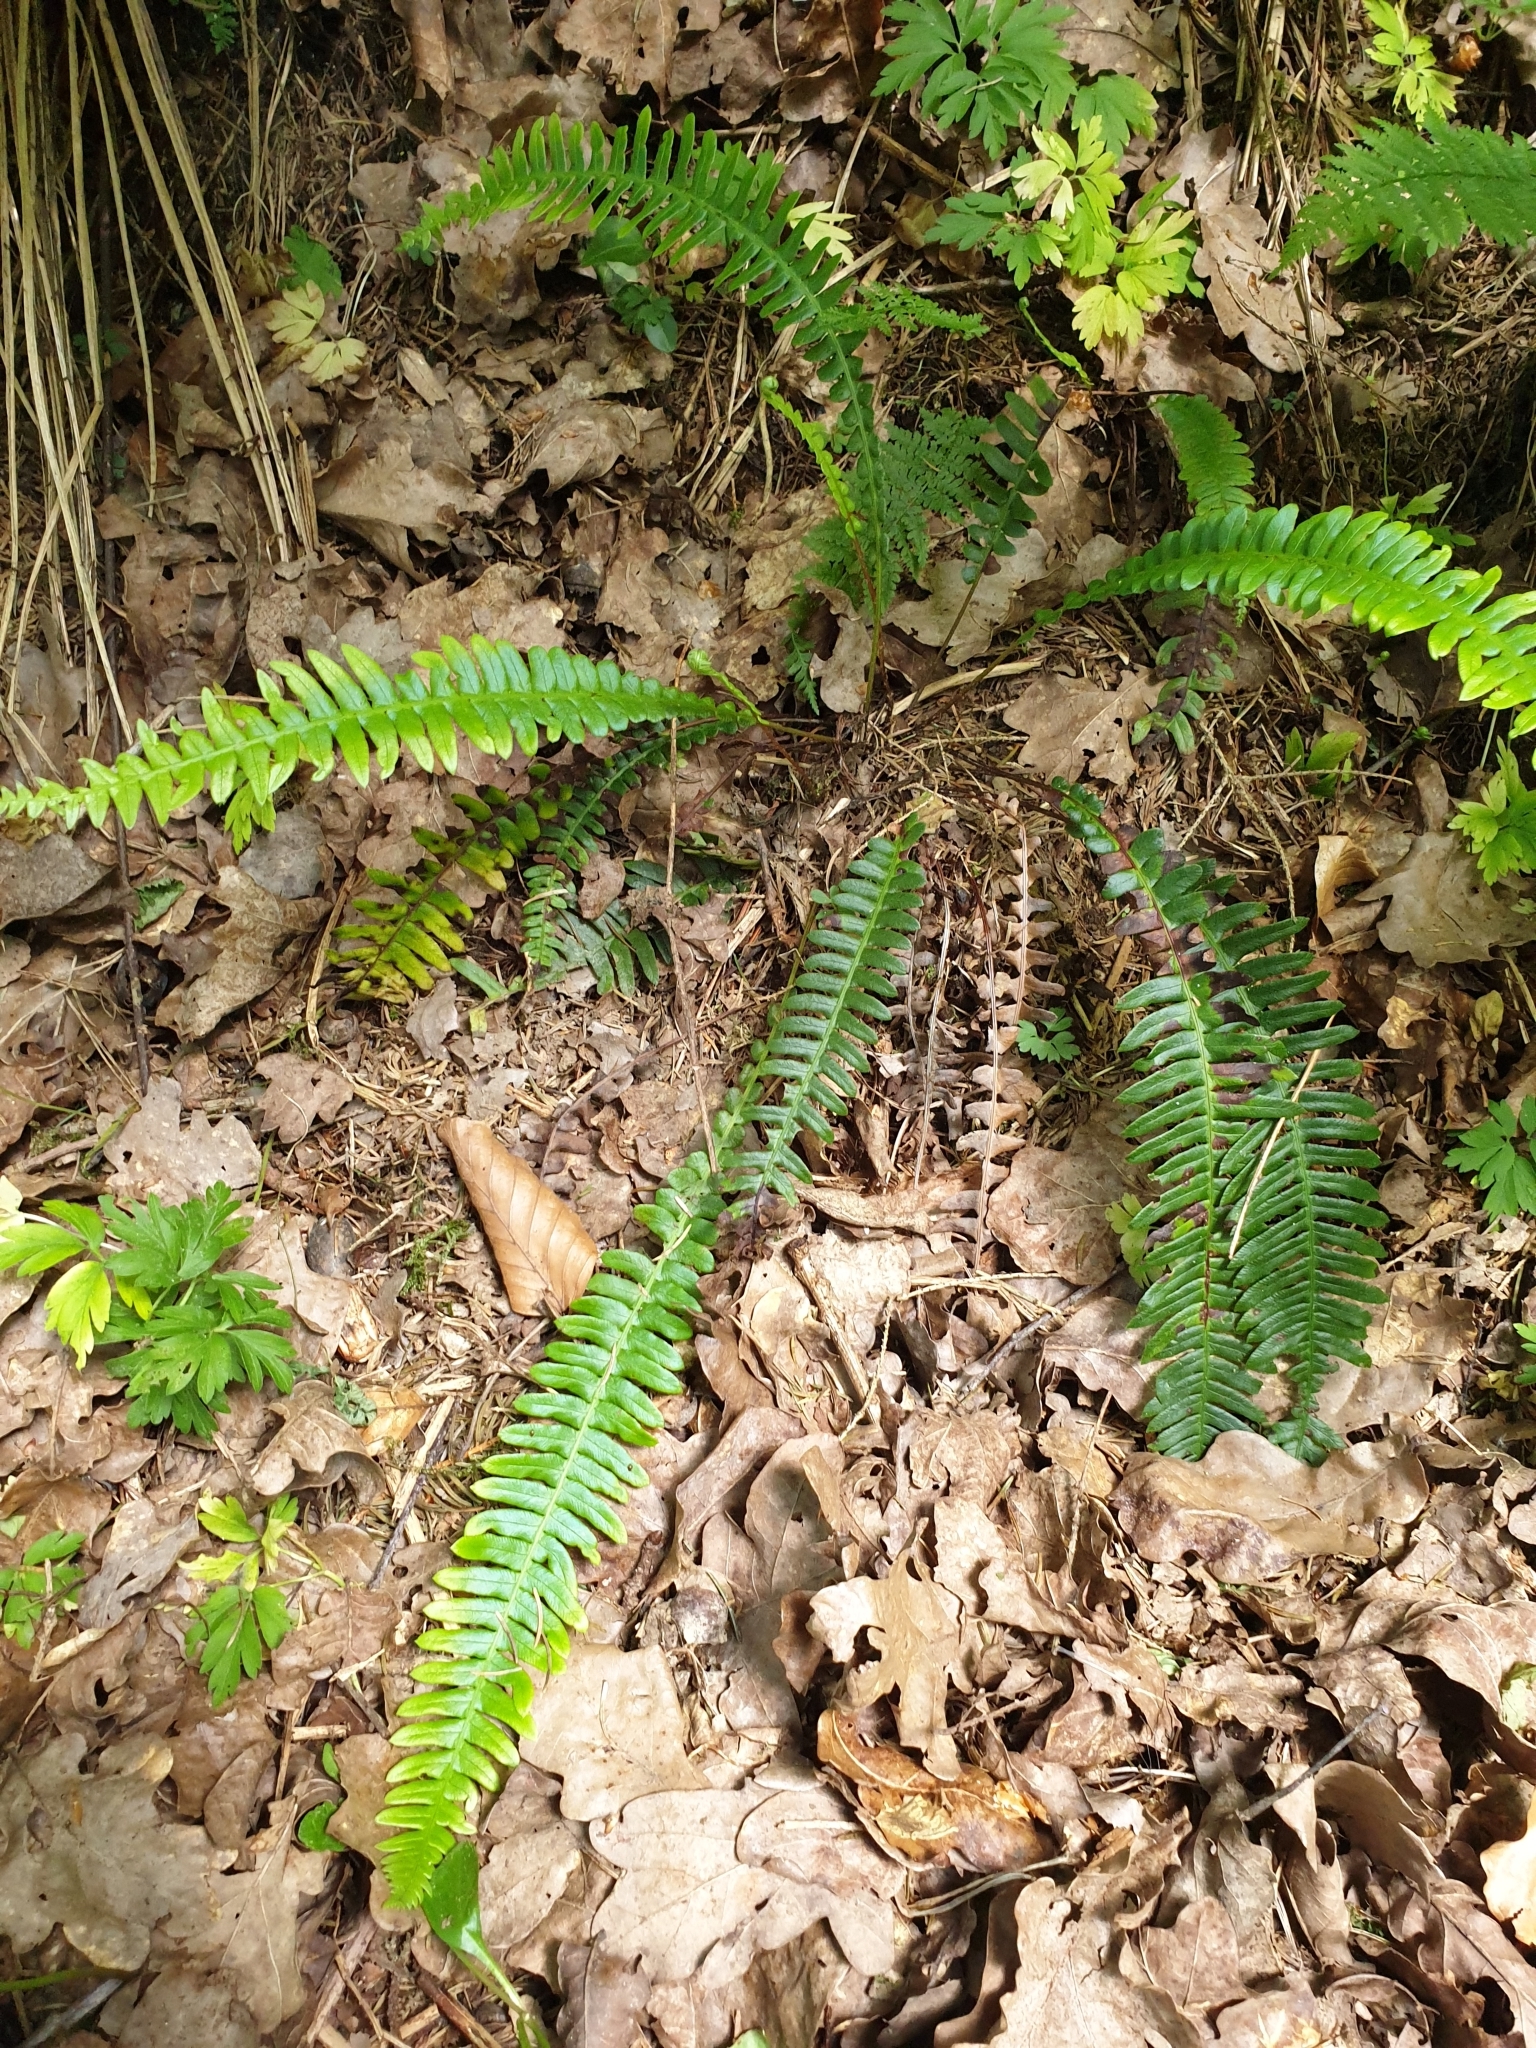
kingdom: Plantae
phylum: Tracheophyta
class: Polypodiopsida
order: Polypodiales
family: Blechnaceae
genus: Struthiopteris
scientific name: Struthiopteris spicant
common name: Deer fern
